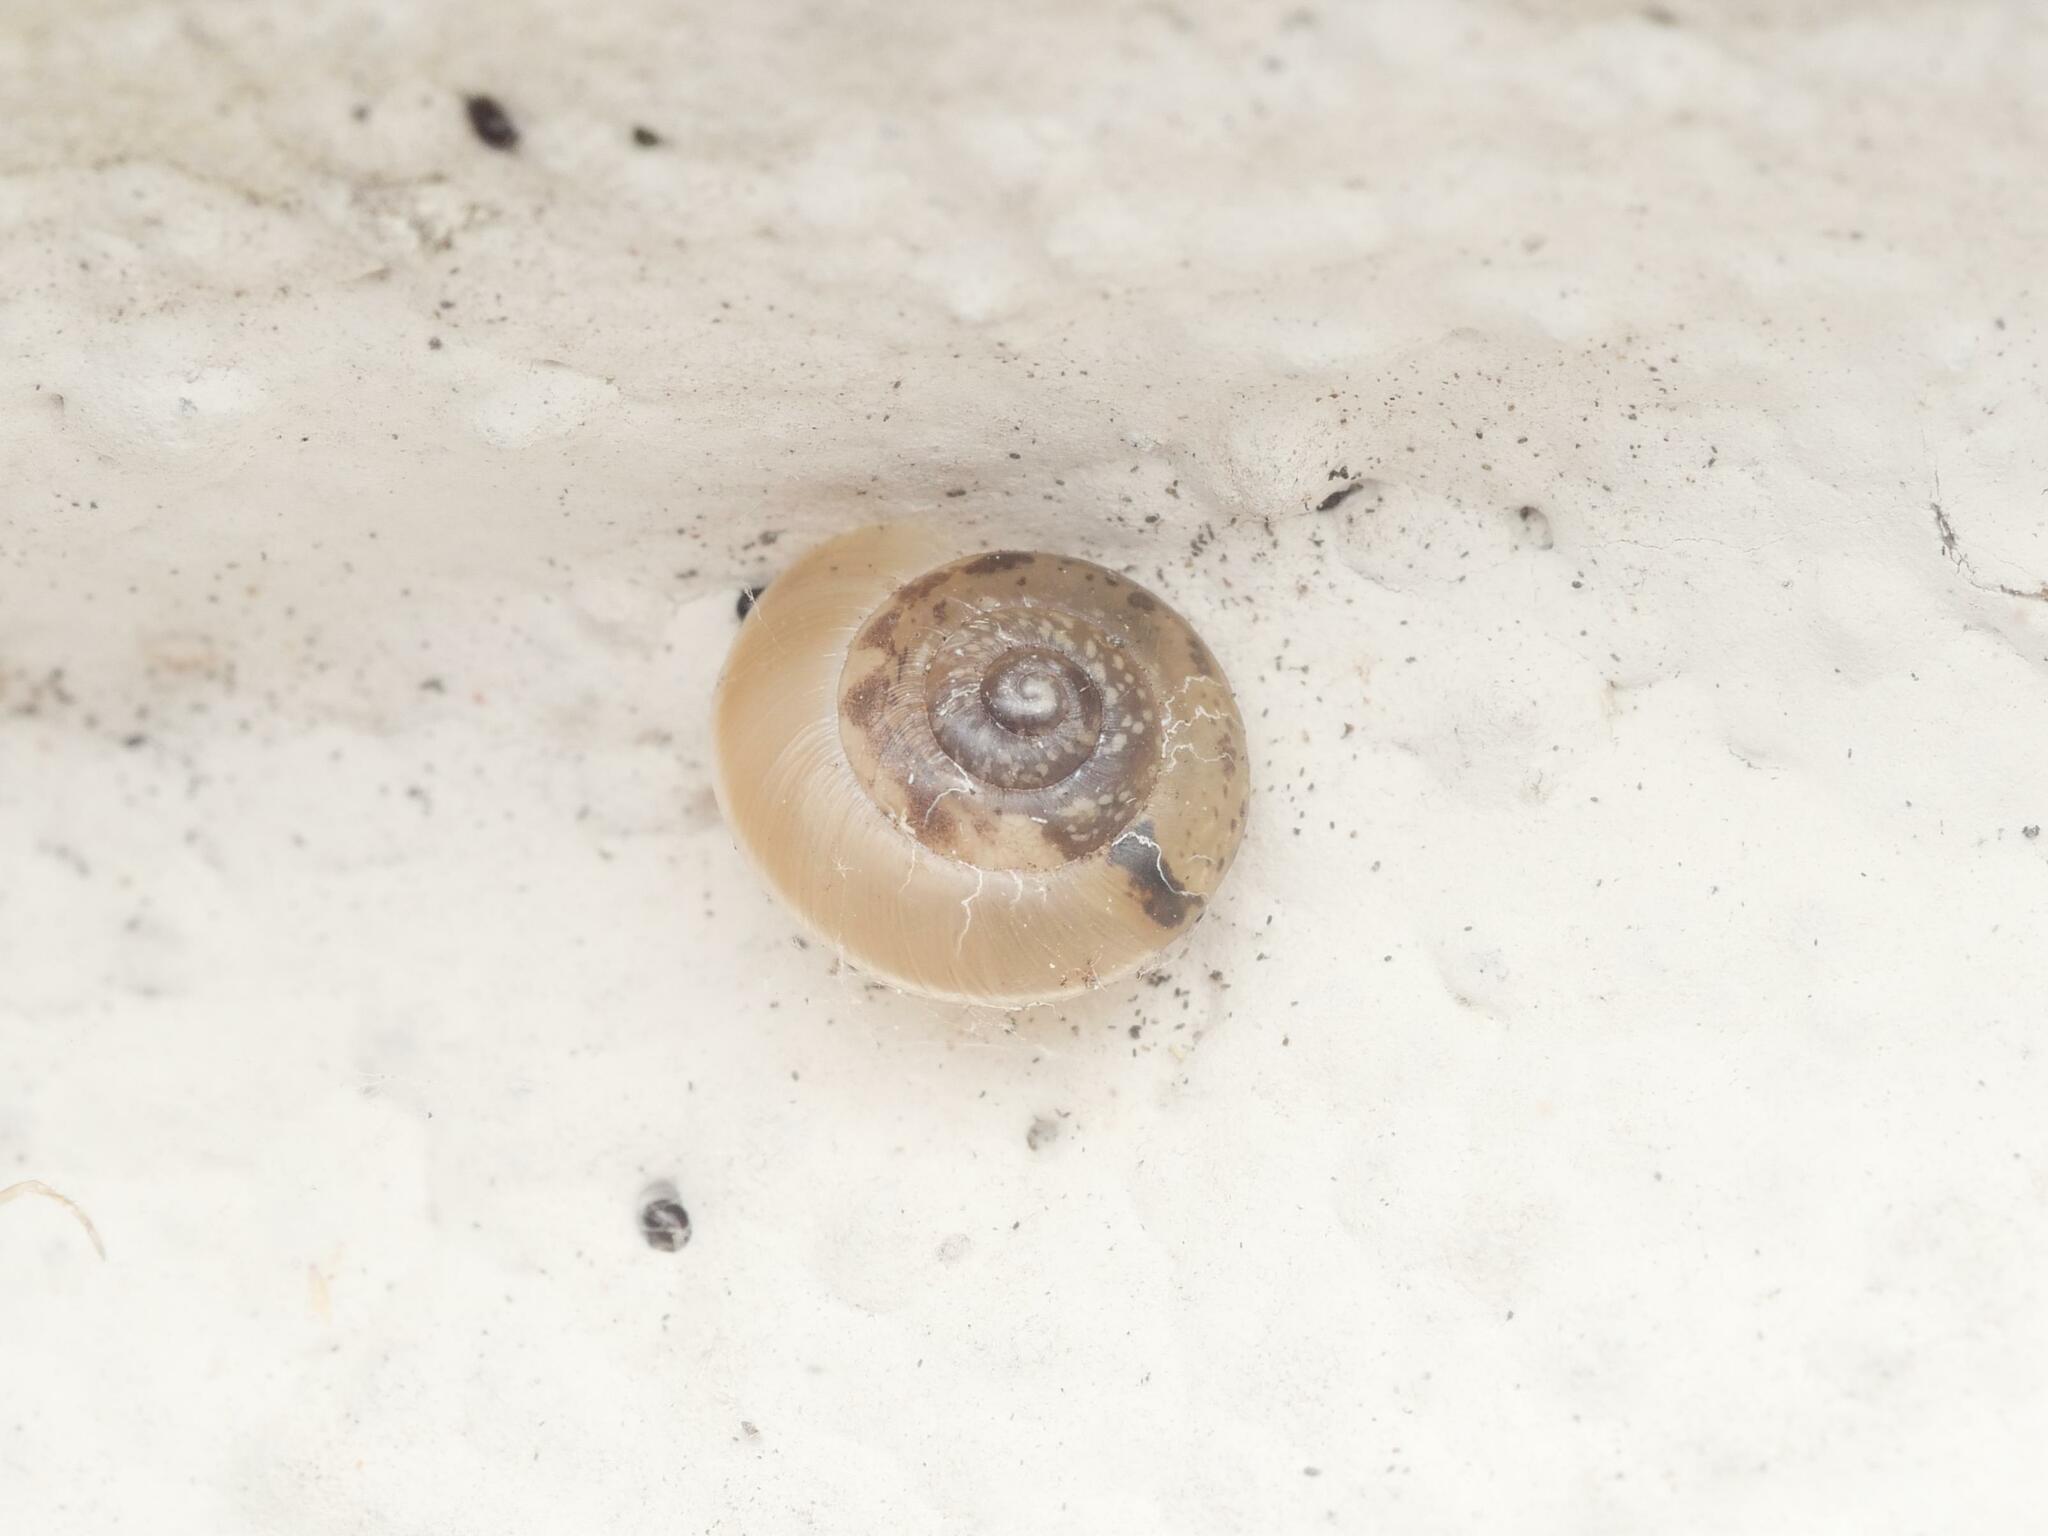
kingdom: Animalia
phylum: Mollusca
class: Gastropoda
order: Stylommatophora
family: Hygromiidae
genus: Hygromia
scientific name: Hygromia cinctella
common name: Girdled snail
